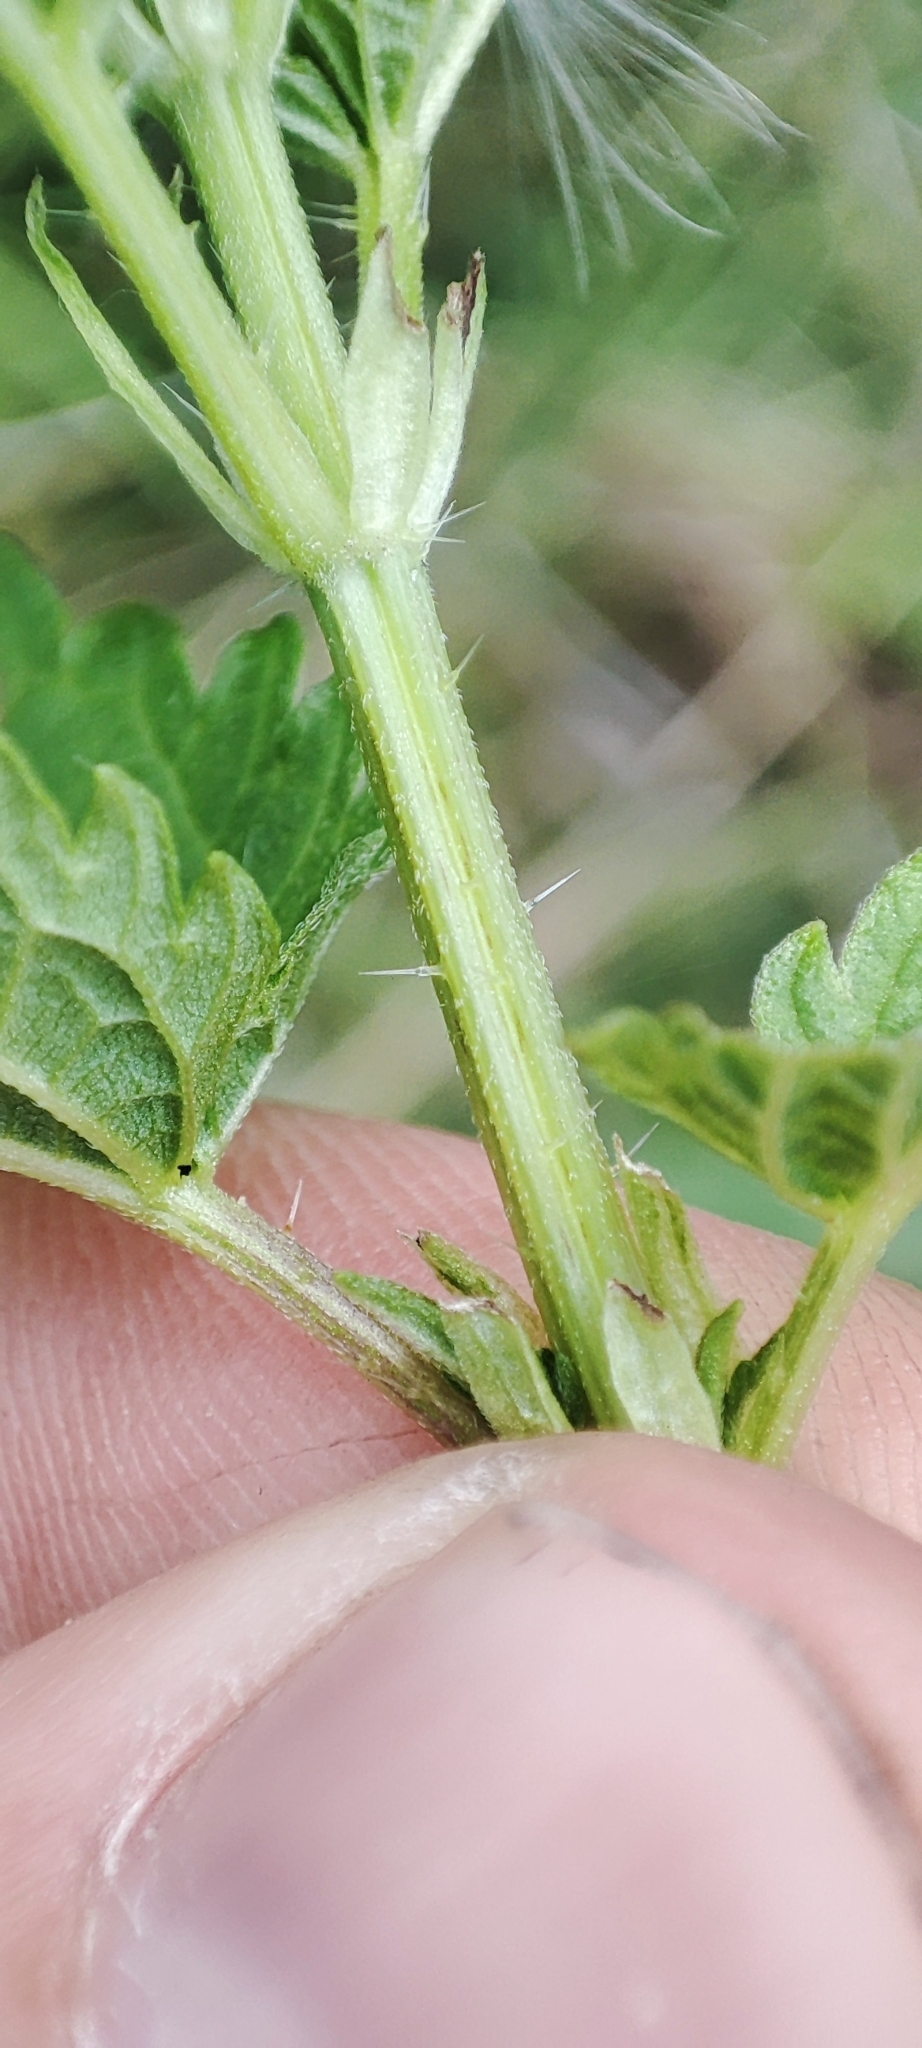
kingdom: Plantae
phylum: Tracheophyta
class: Magnoliopsida
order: Rosales
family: Urticaceae
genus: Urtica
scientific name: Urtica dioica
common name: Common nettle
